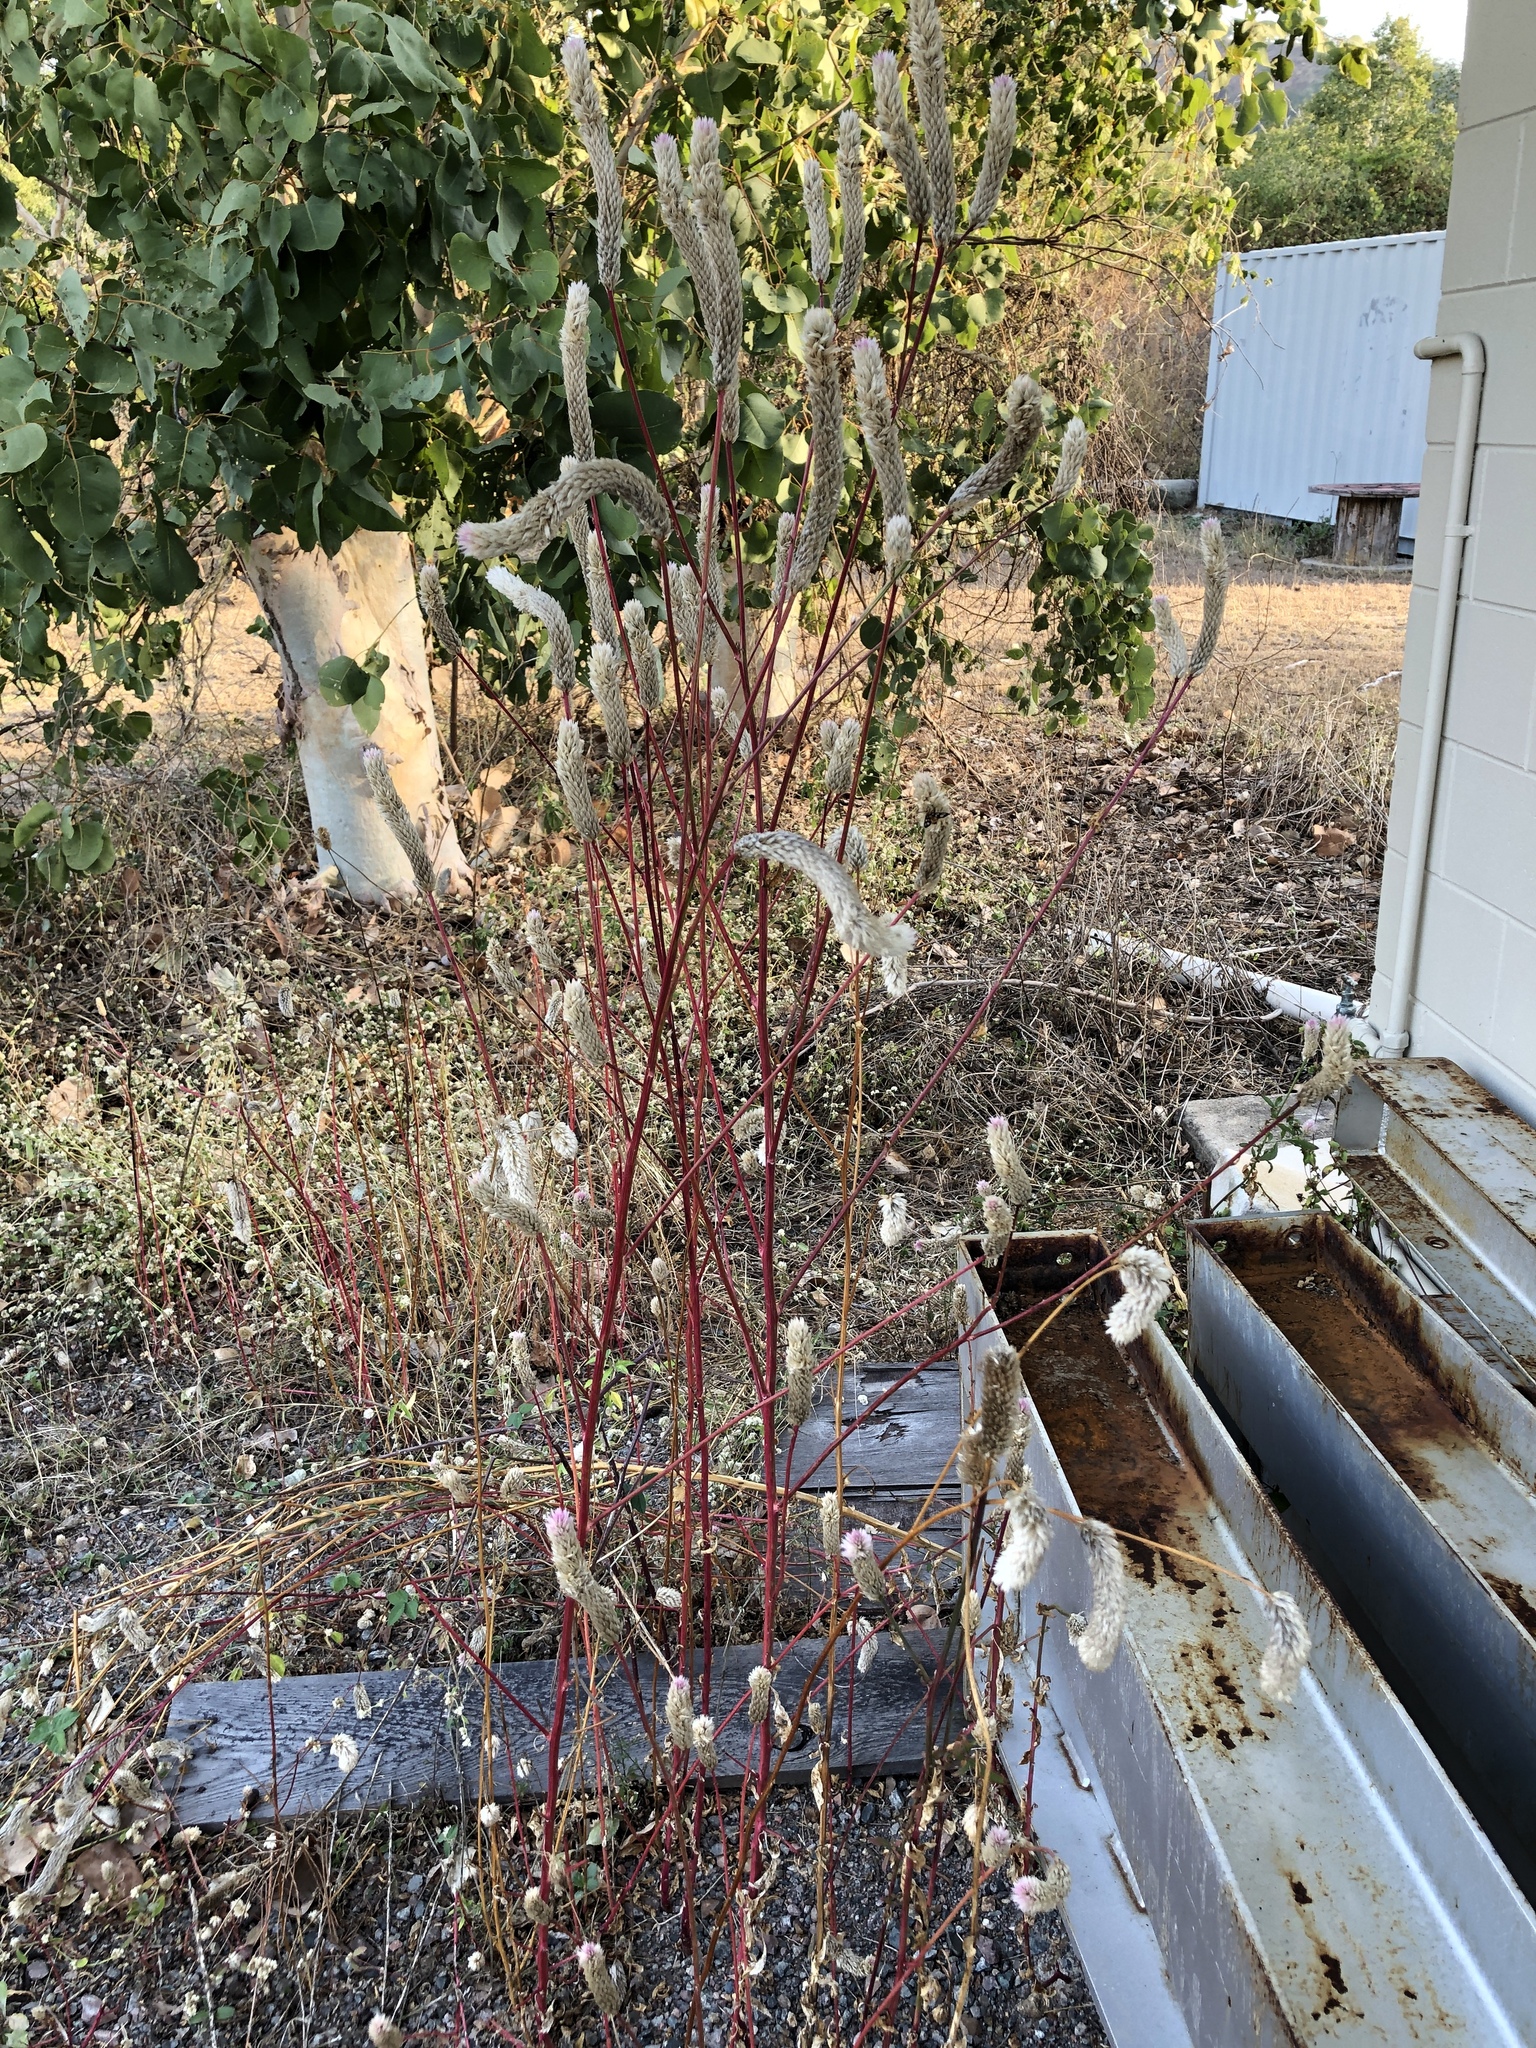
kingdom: Plantae
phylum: Tracheophyta
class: Magnoliopsida
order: Caryophyllales
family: Amaranthaceae
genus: Celosia
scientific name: Celosia argentea
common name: Feather cockscomb
